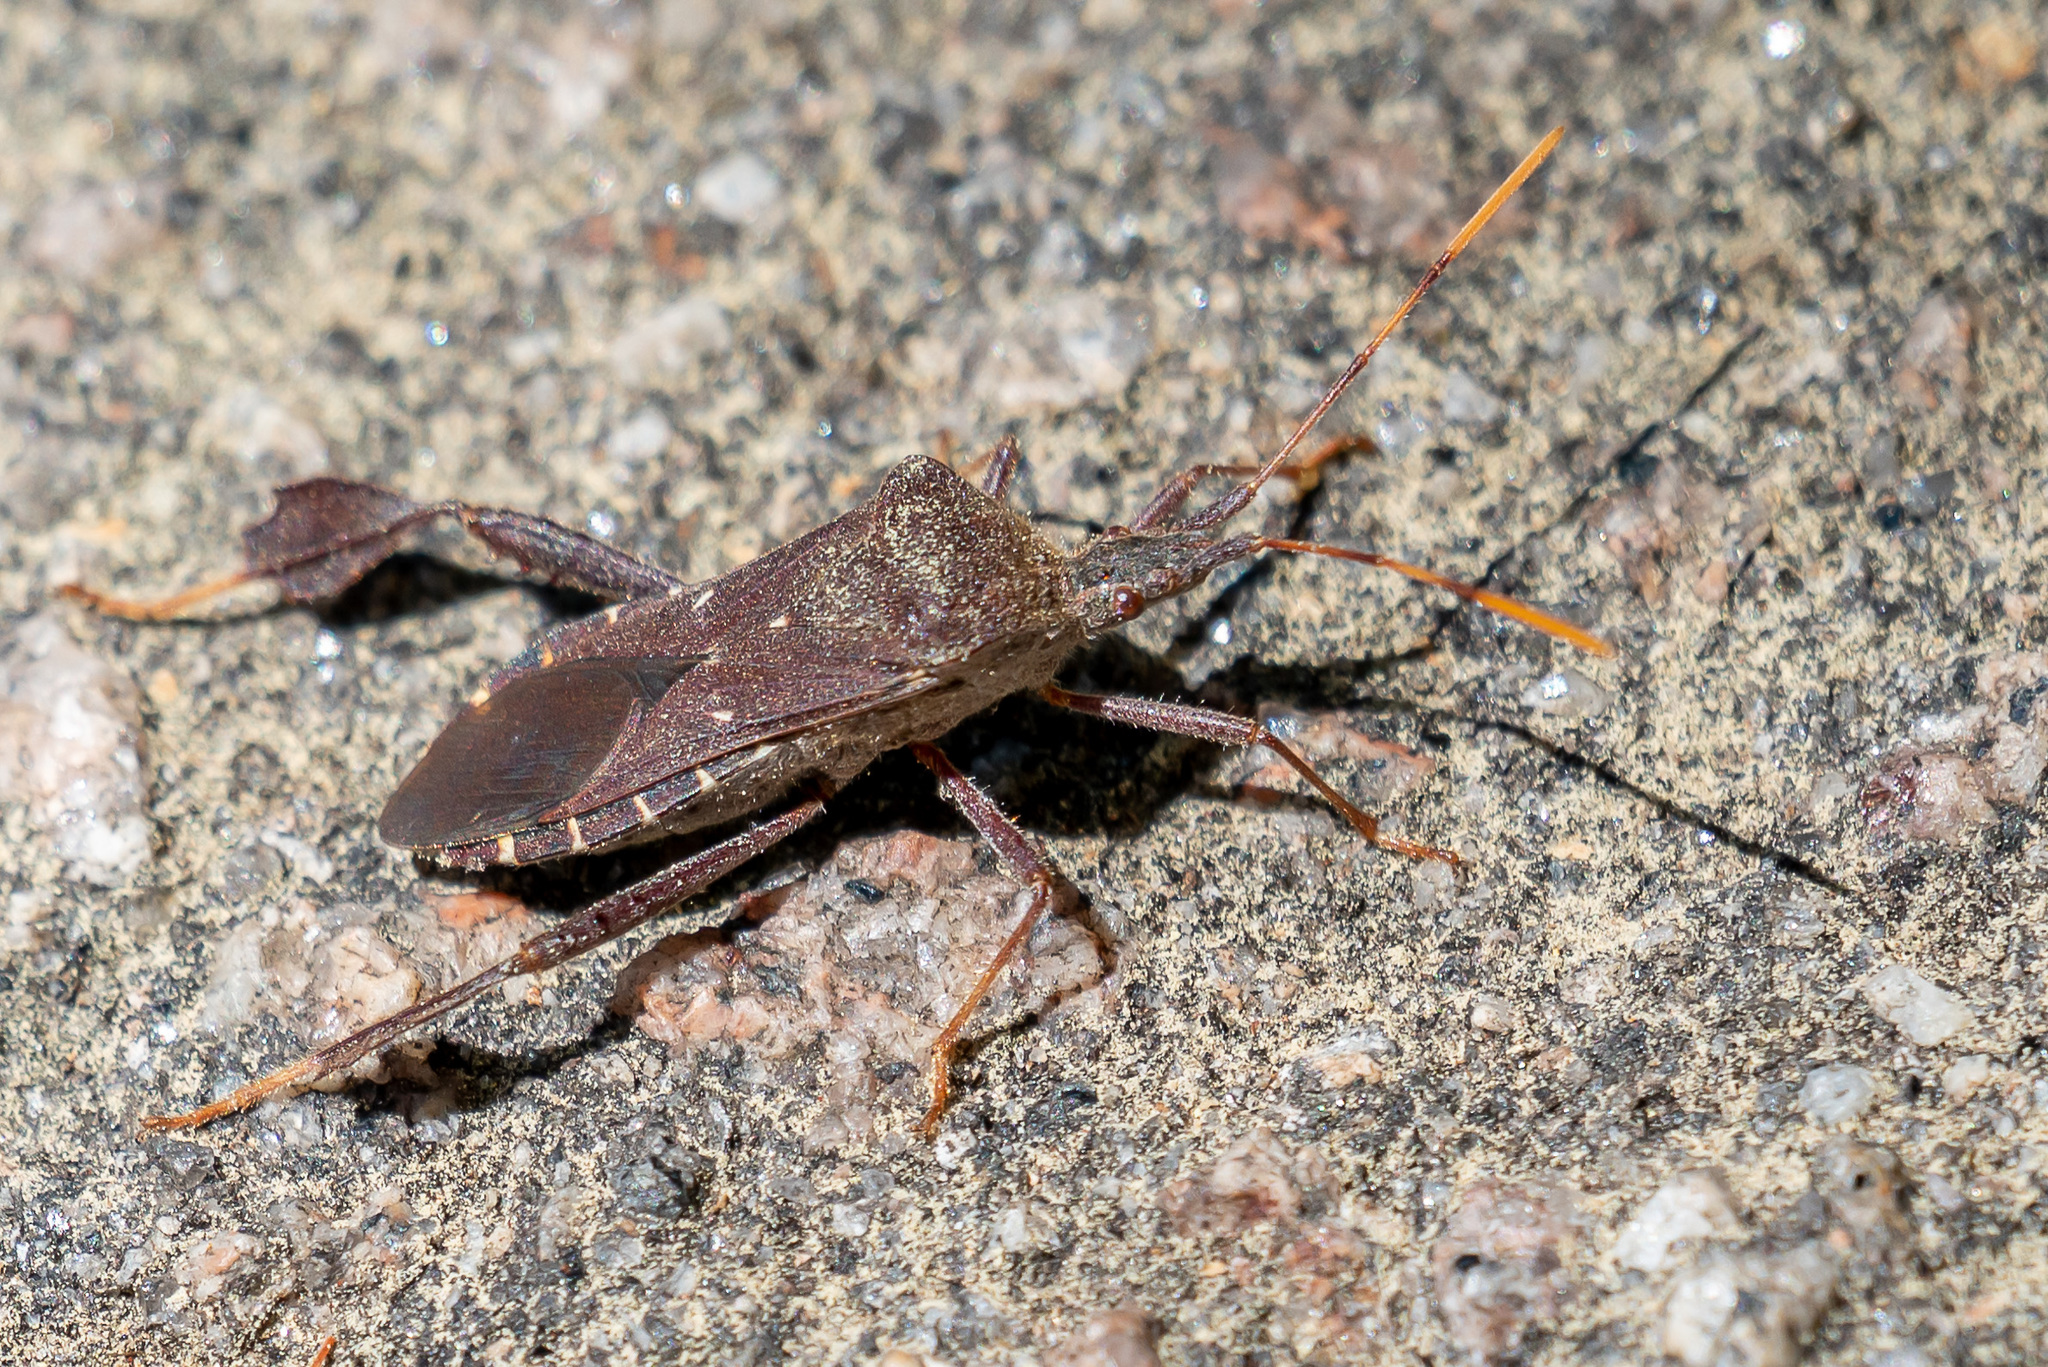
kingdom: Animalia
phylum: Arthropoda
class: Insecta
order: Hemiptera
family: Coreidae
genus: Leptoglossus
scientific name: Leptoglossus oppositus
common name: Northern leaf-footed bug
